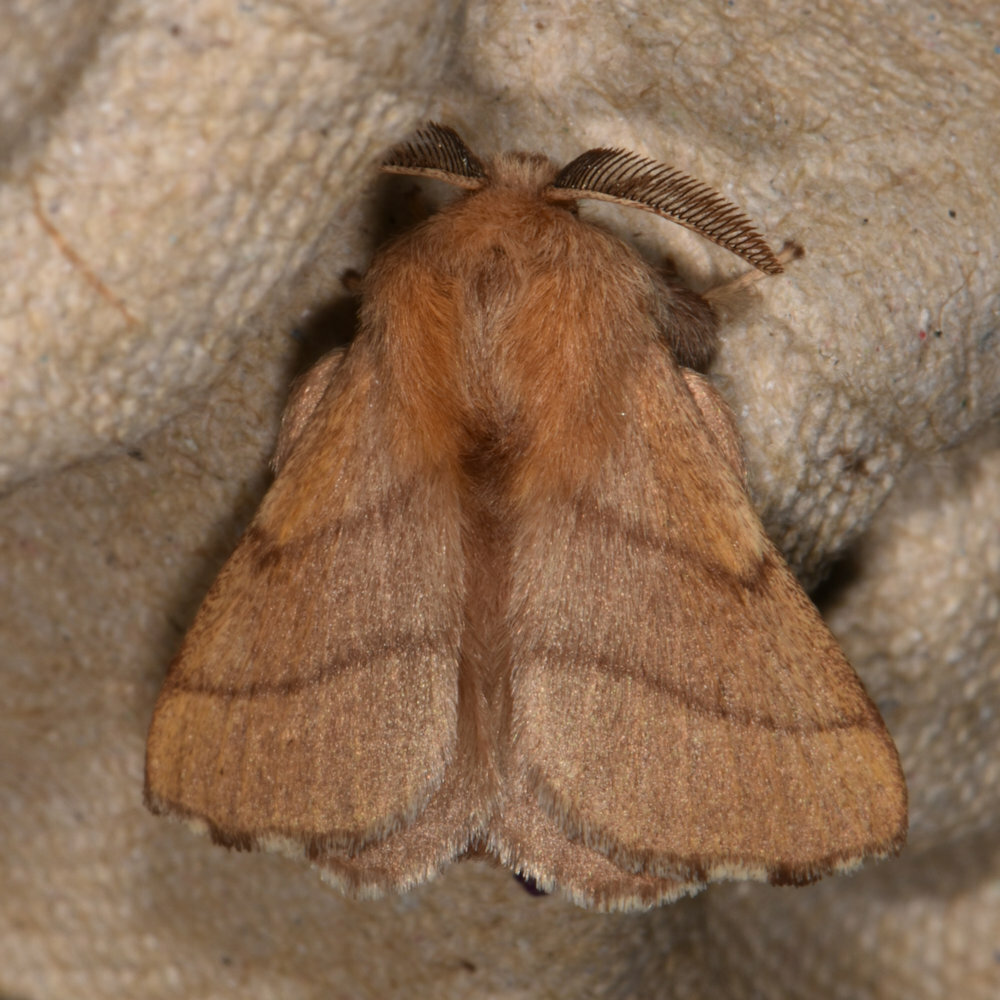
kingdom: Animalia
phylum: Arthropoda
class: Insecta
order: Lepidoptera
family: Lasiocampidae
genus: Malacosoma
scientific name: Malacosoma disstria
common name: Forest tent caterpillar
